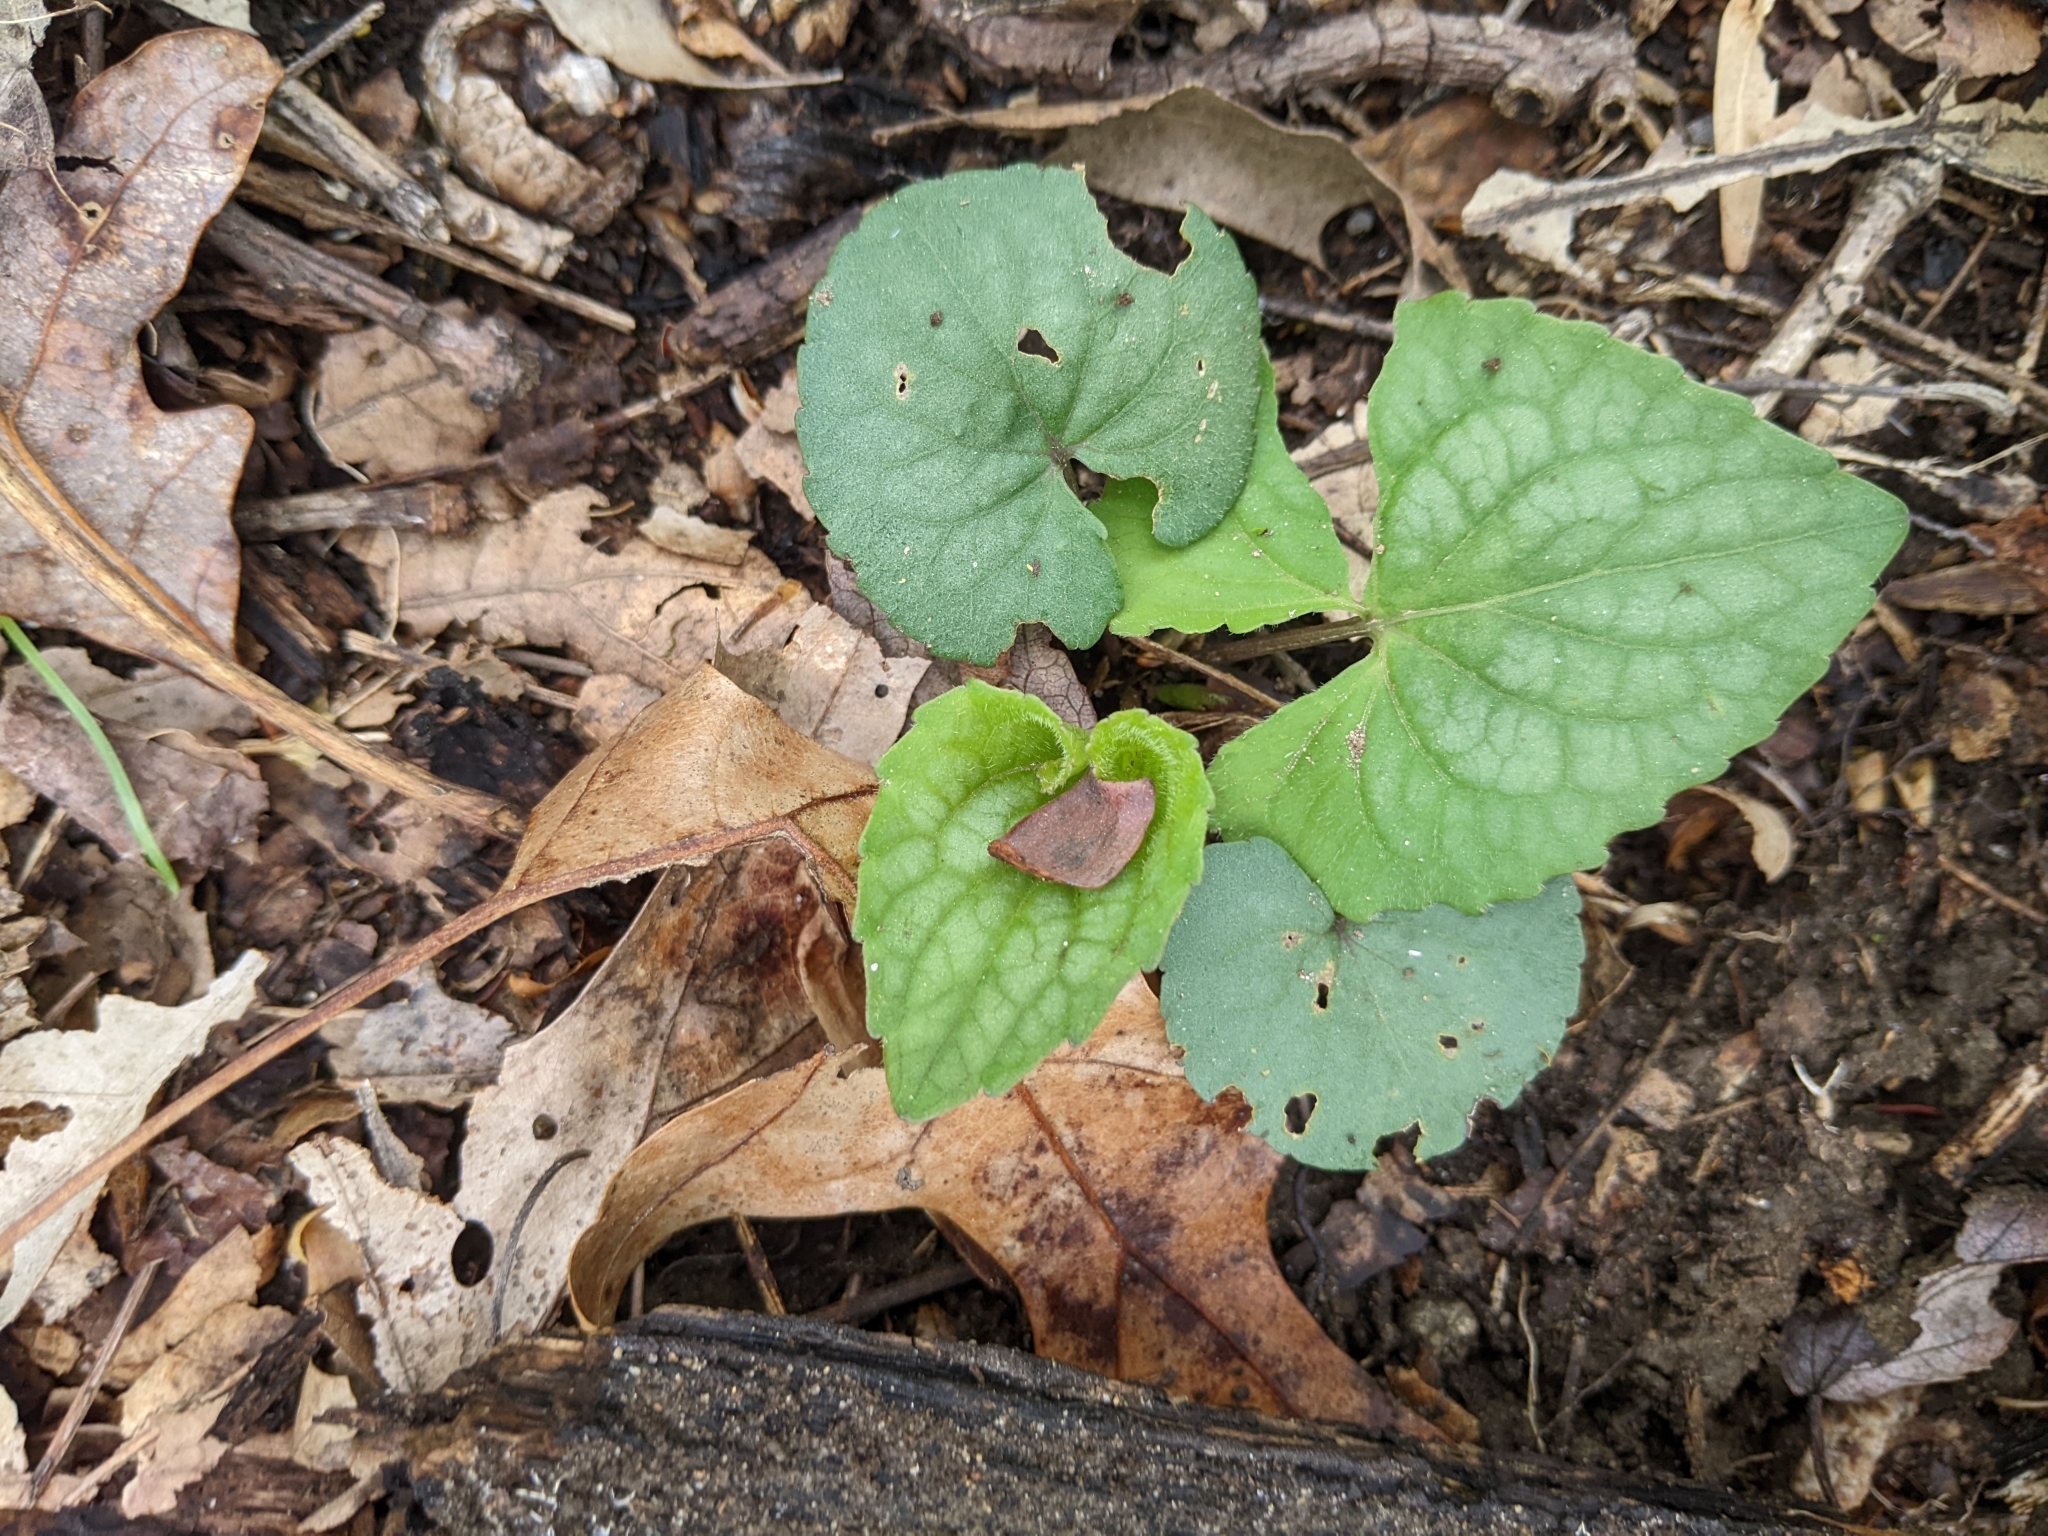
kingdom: Plantae
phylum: Tracheophyta
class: Magnoliopsida
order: Malpighiales
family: Violaceae
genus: Viola
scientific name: Viola hirsutula
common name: Southern wood violet
